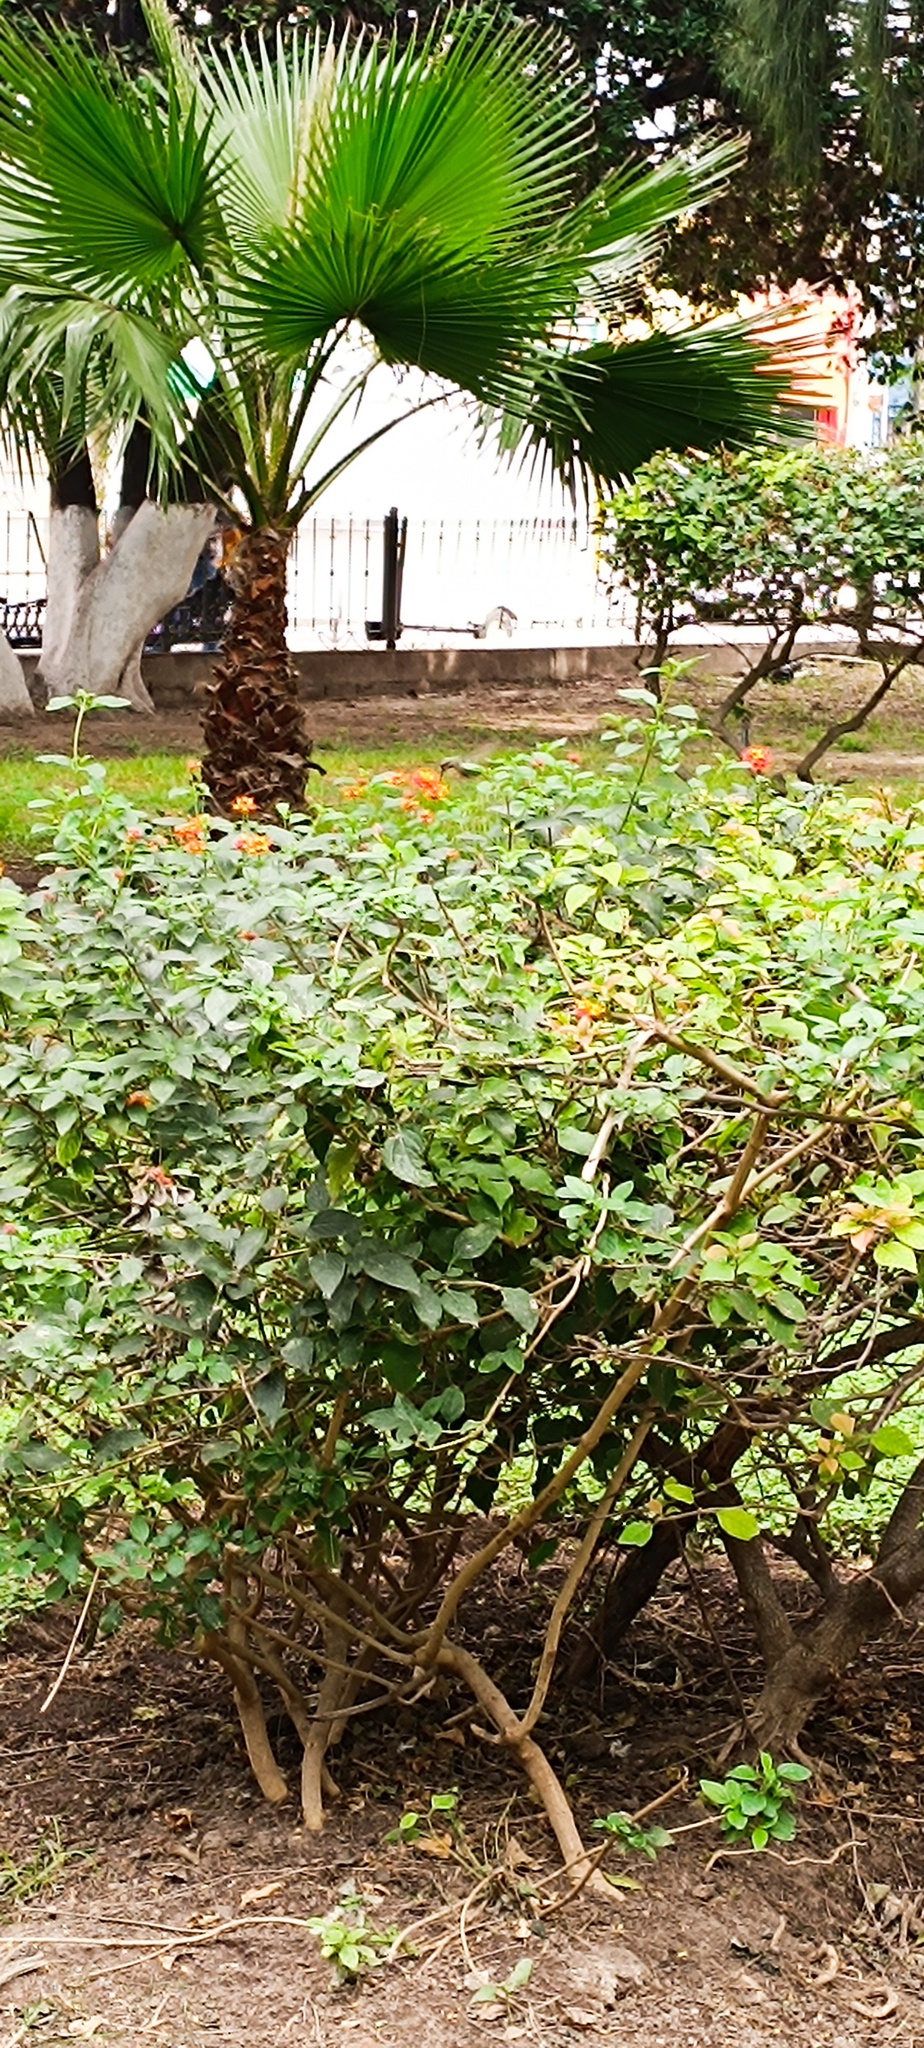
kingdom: Animalia
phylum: Chordata
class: Aves
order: Apodiformes
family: Trochilidae
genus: Cynanthus
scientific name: Cynanthus latirostris
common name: Broad-billed hummingbird
